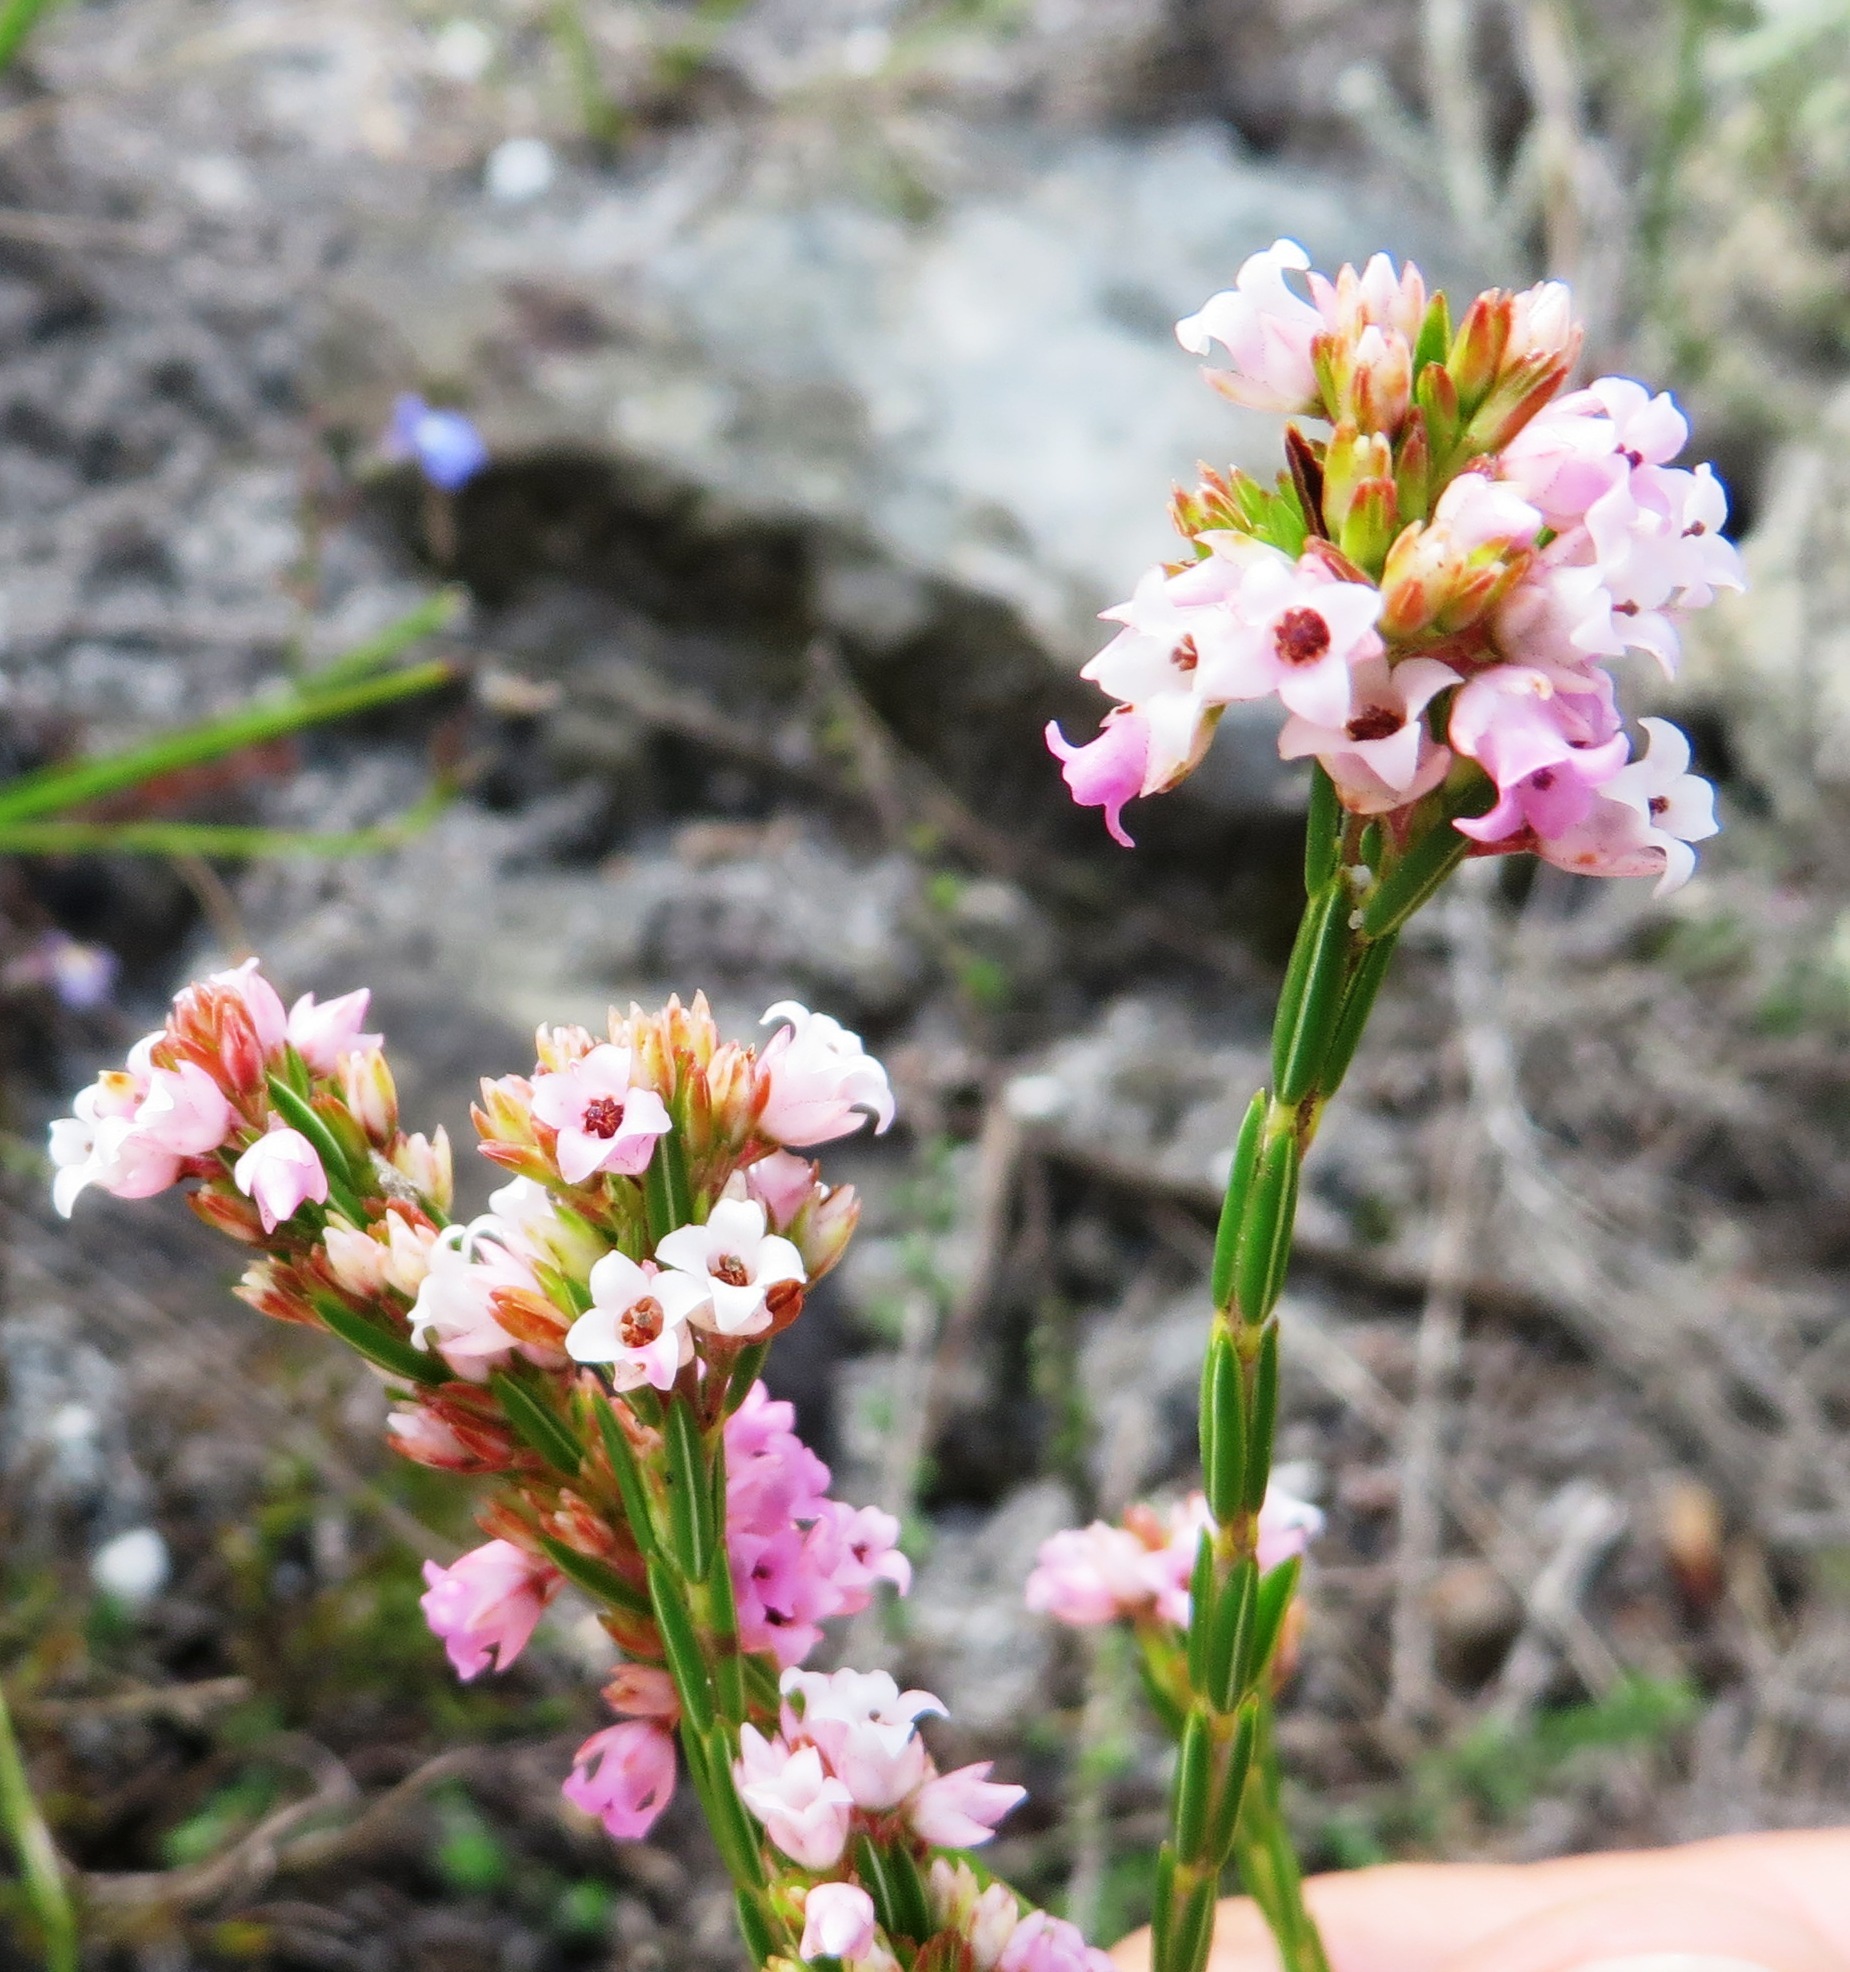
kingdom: Plantae
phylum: Tracheophyta
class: Magnoliopsida
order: Ericales
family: Ericaceae
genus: Erica
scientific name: Erica articularis
